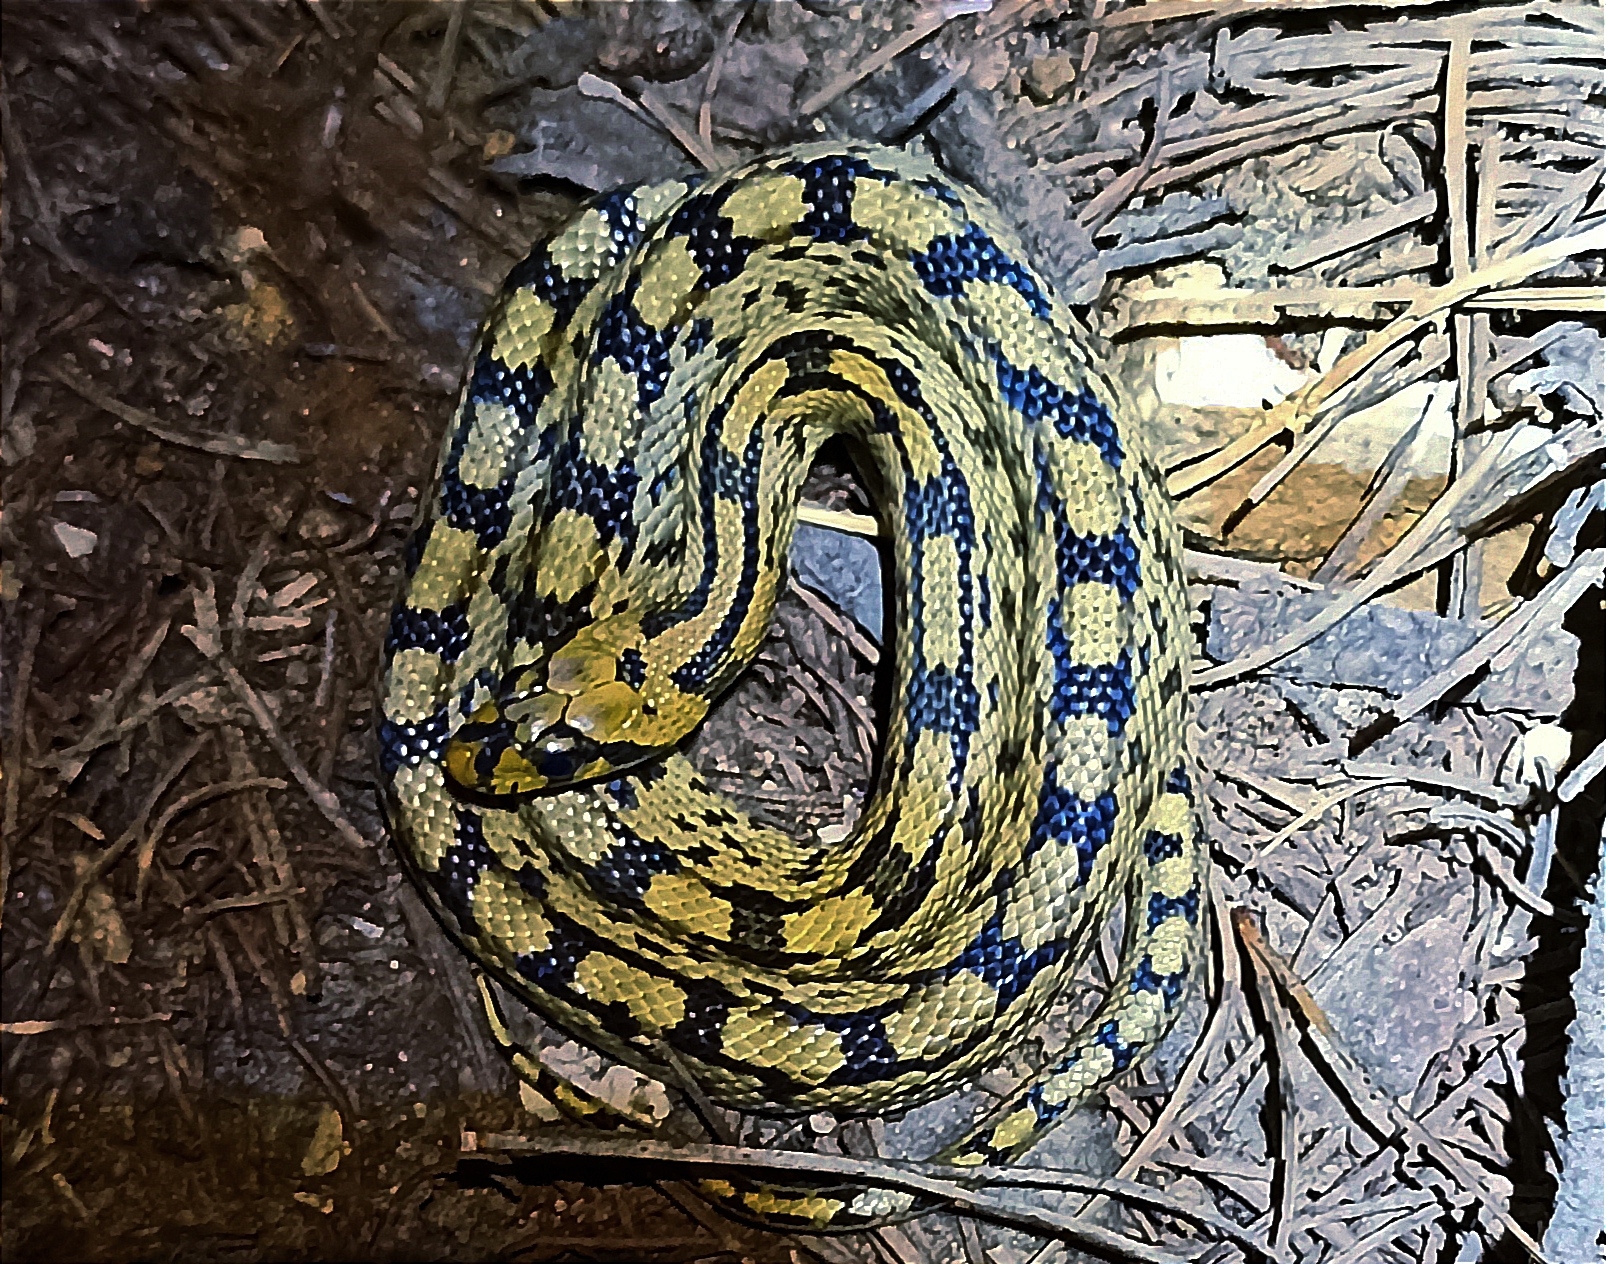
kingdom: Animalia
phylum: Chordata
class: Squamata
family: Colubridae
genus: Zamenis
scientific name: Zamenis scalaris
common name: Ladder snakes
